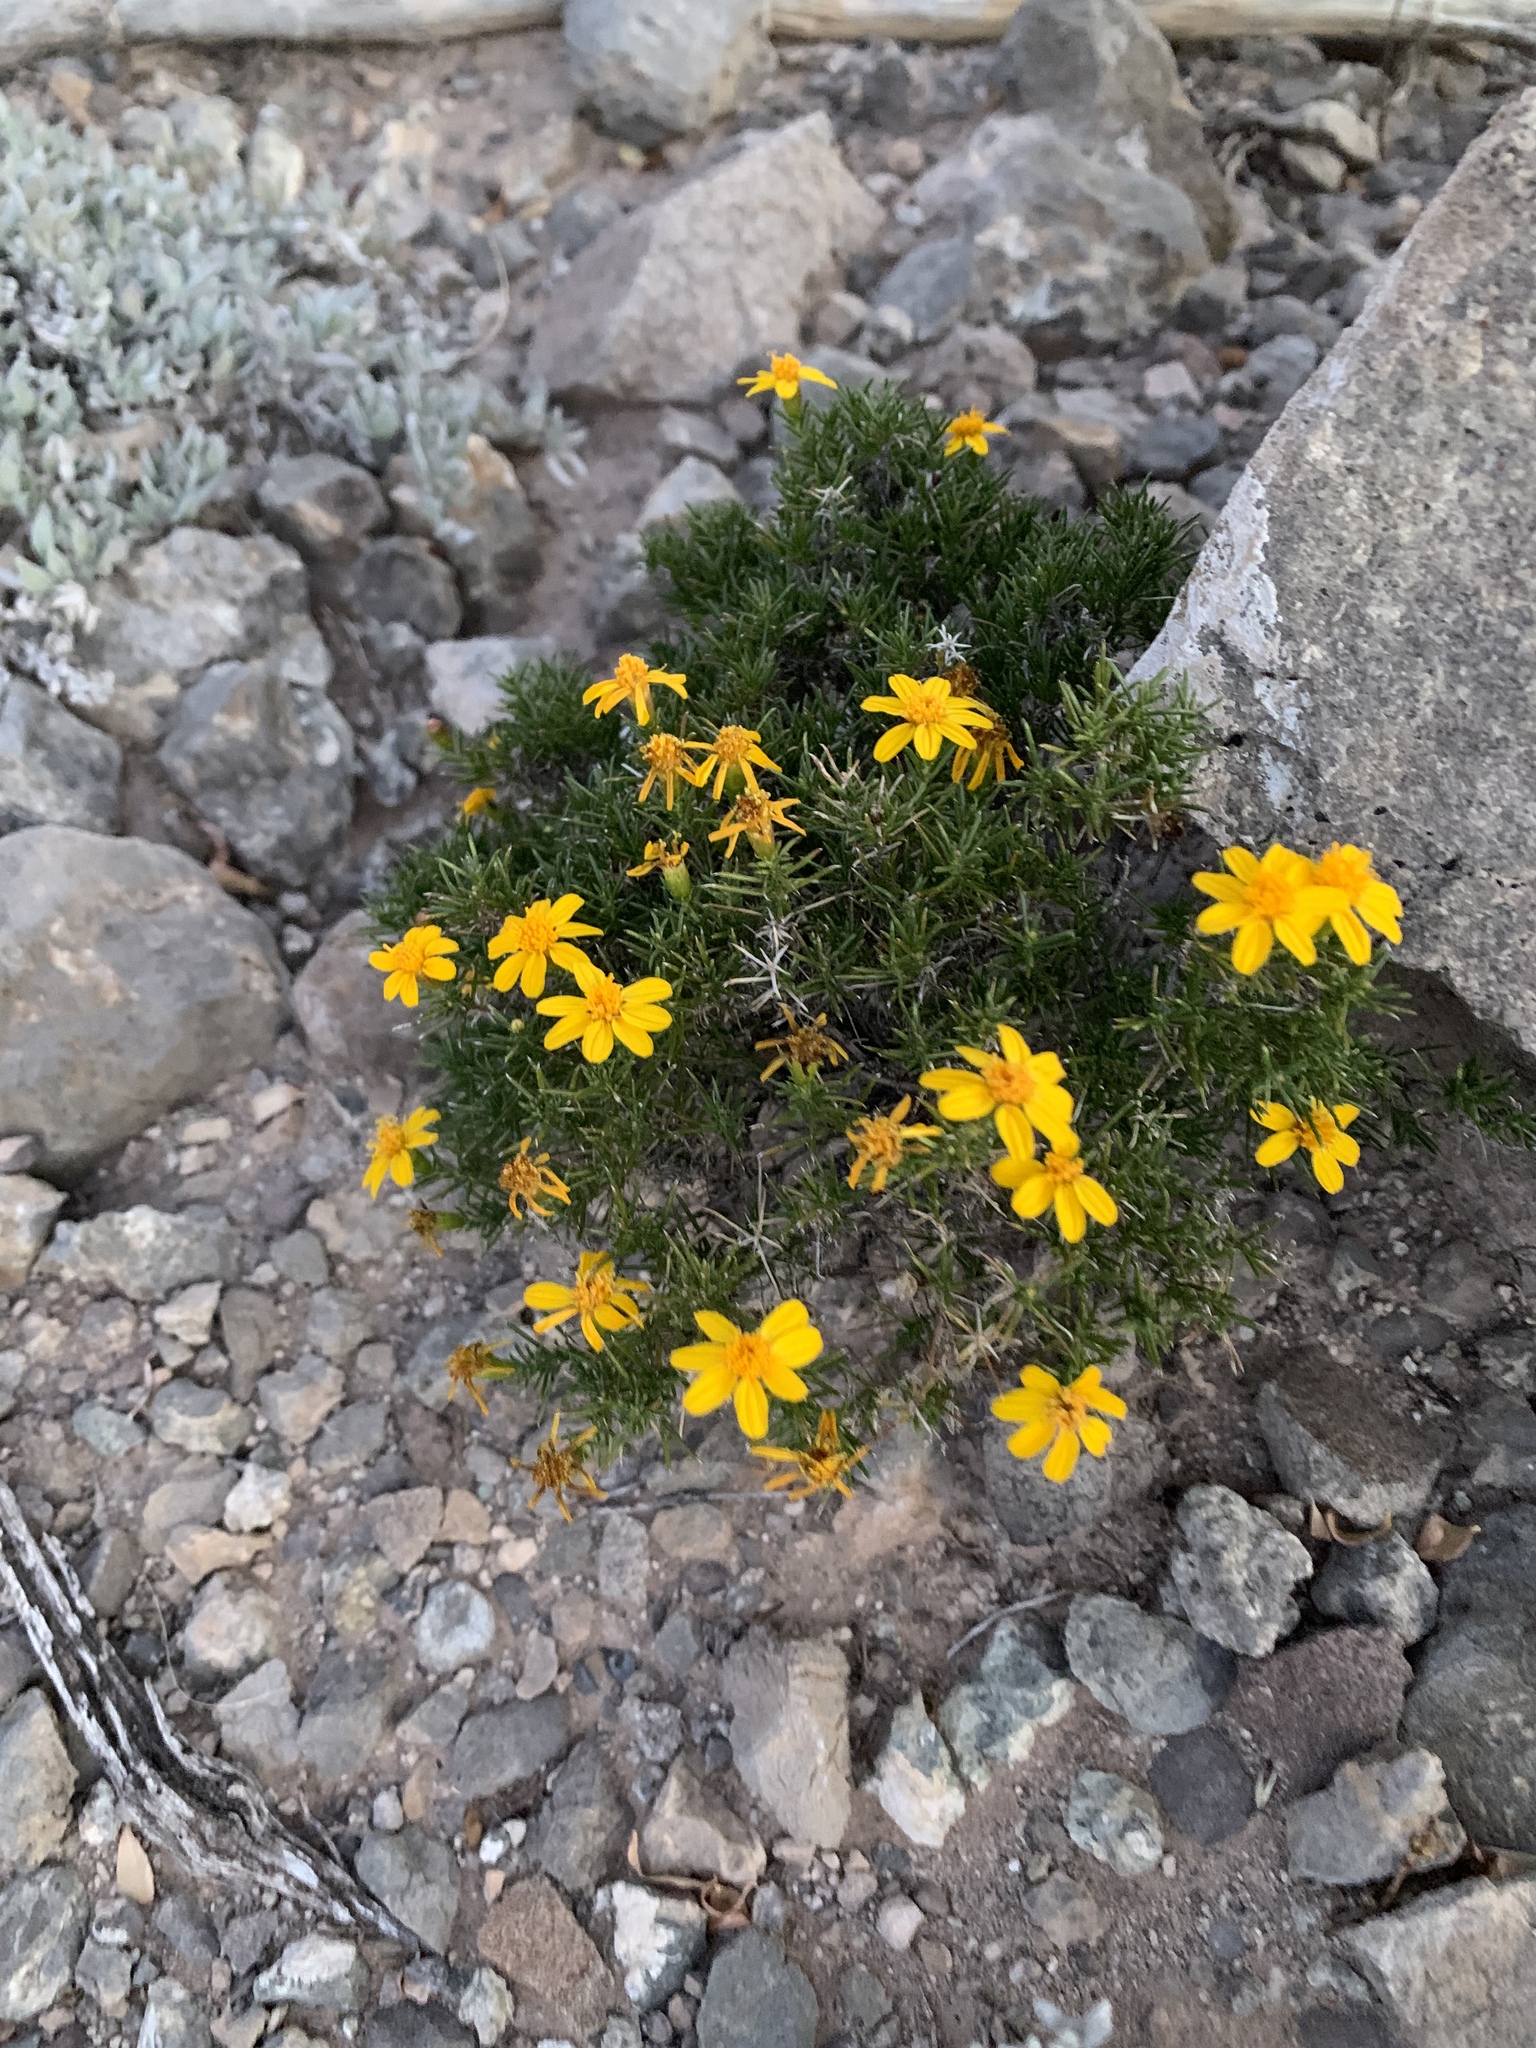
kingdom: Plantae
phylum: Tracheophyta
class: Magnoliopsida
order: Asterales
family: Asteraceae
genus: Thymophylla
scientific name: Thymophylla acerosa
